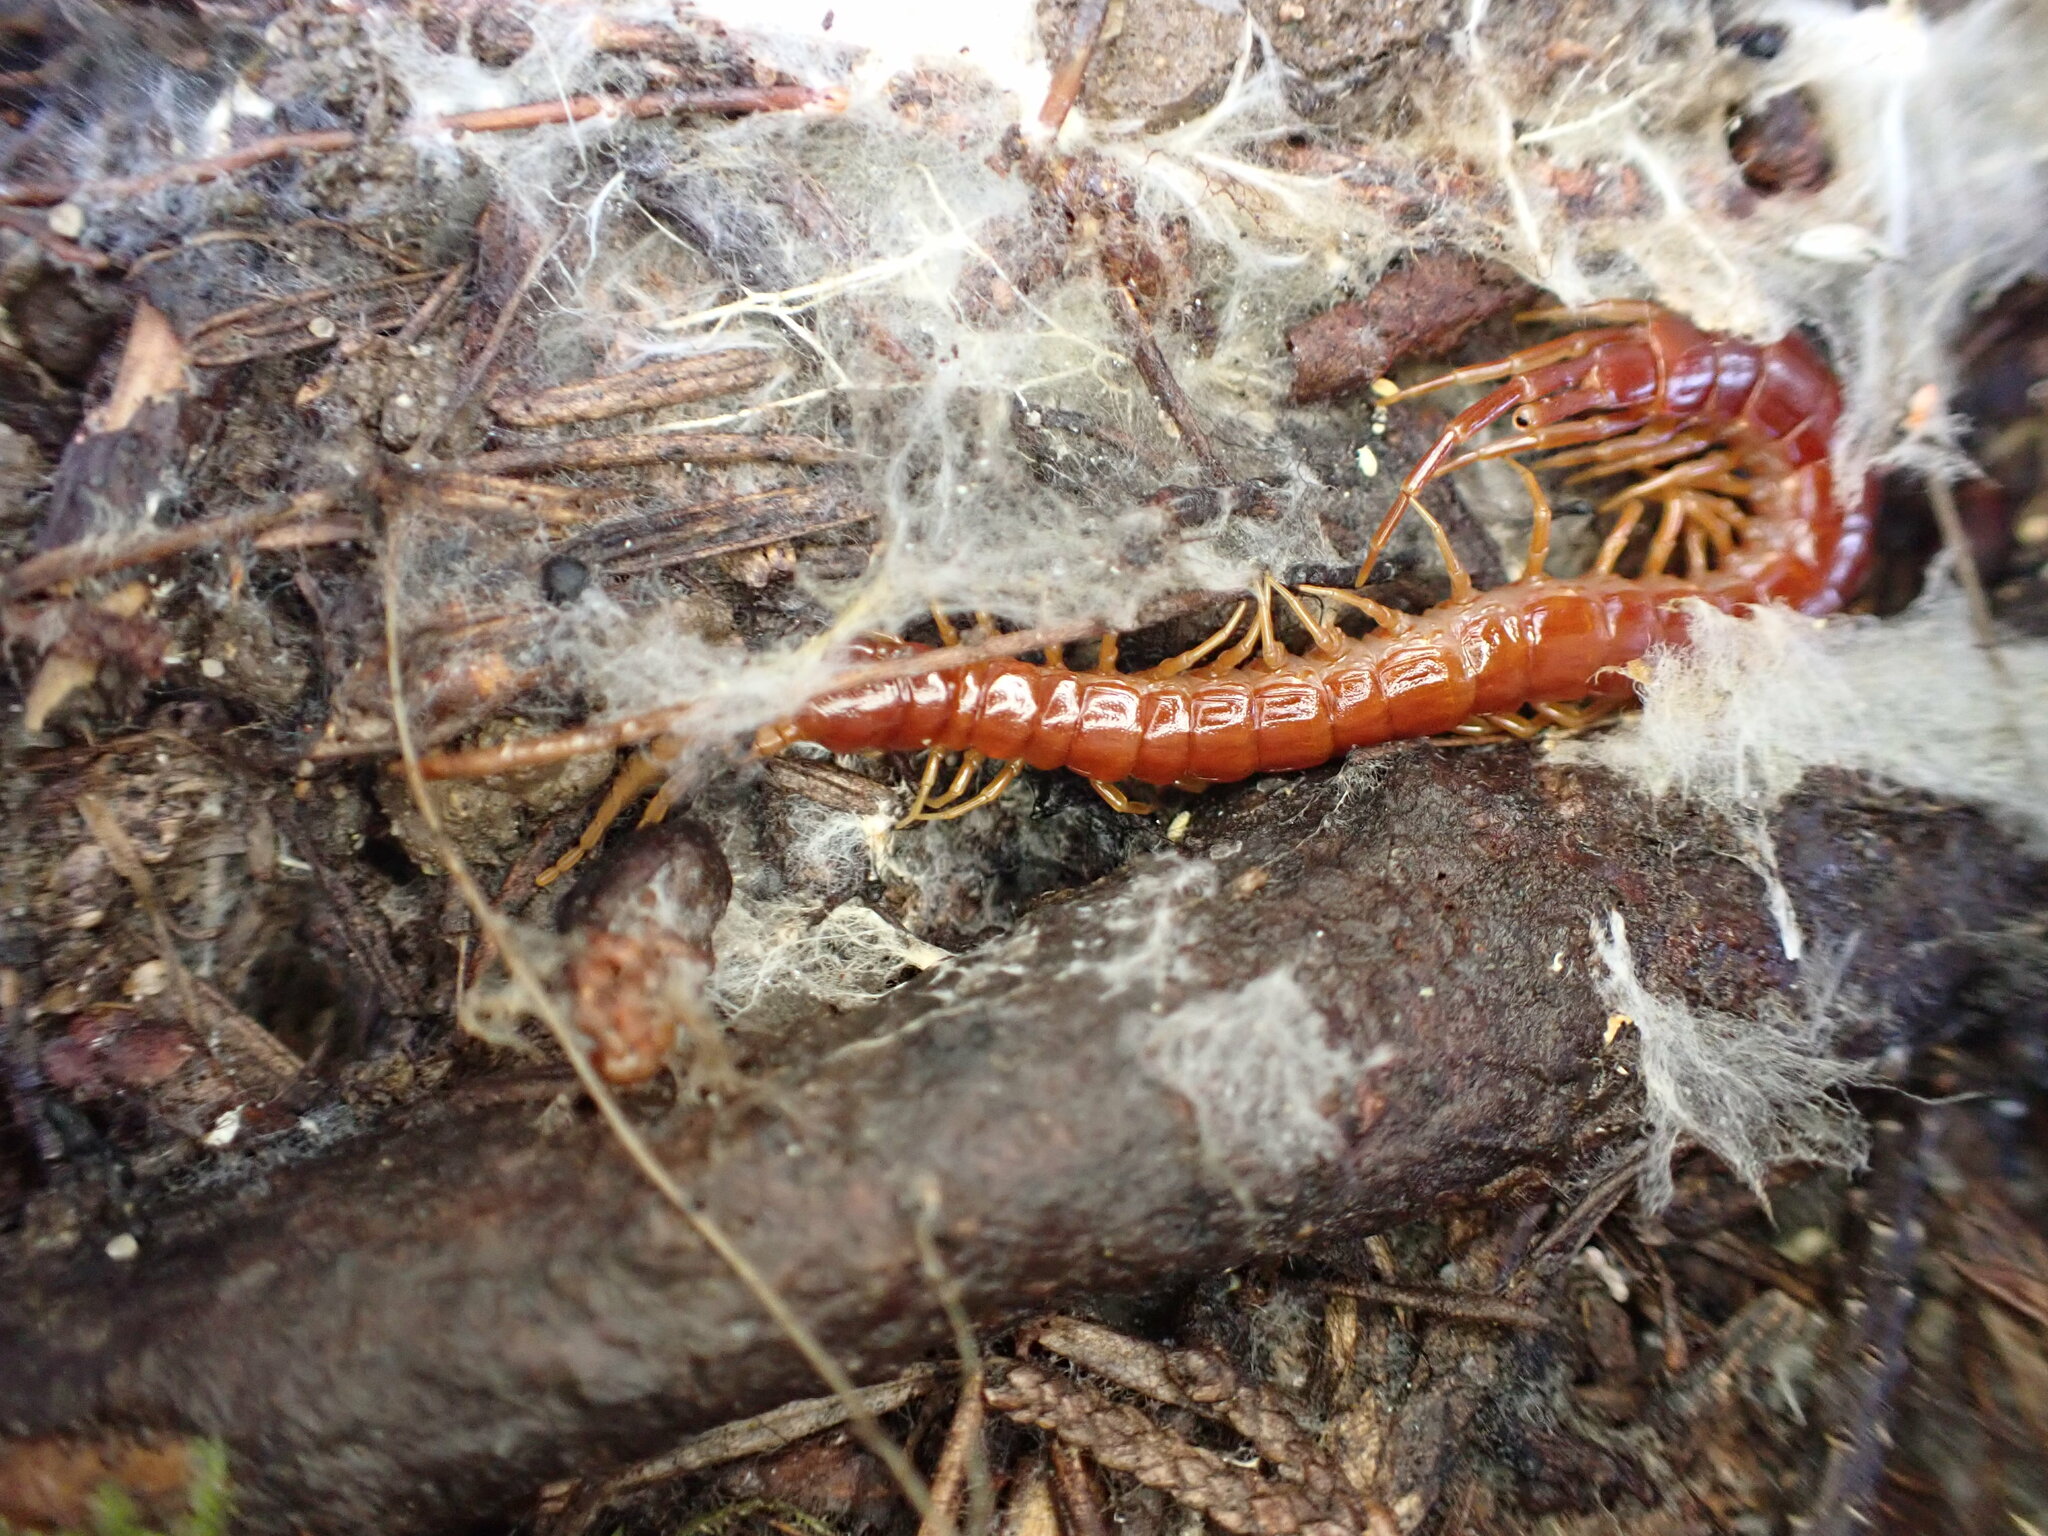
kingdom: Animalia
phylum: Arthropoda
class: Chilopoda
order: Scolopendromorpha
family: Scolopocryptopidae
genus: Scolopocryptops
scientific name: Scolopocryptops spinicaudus
